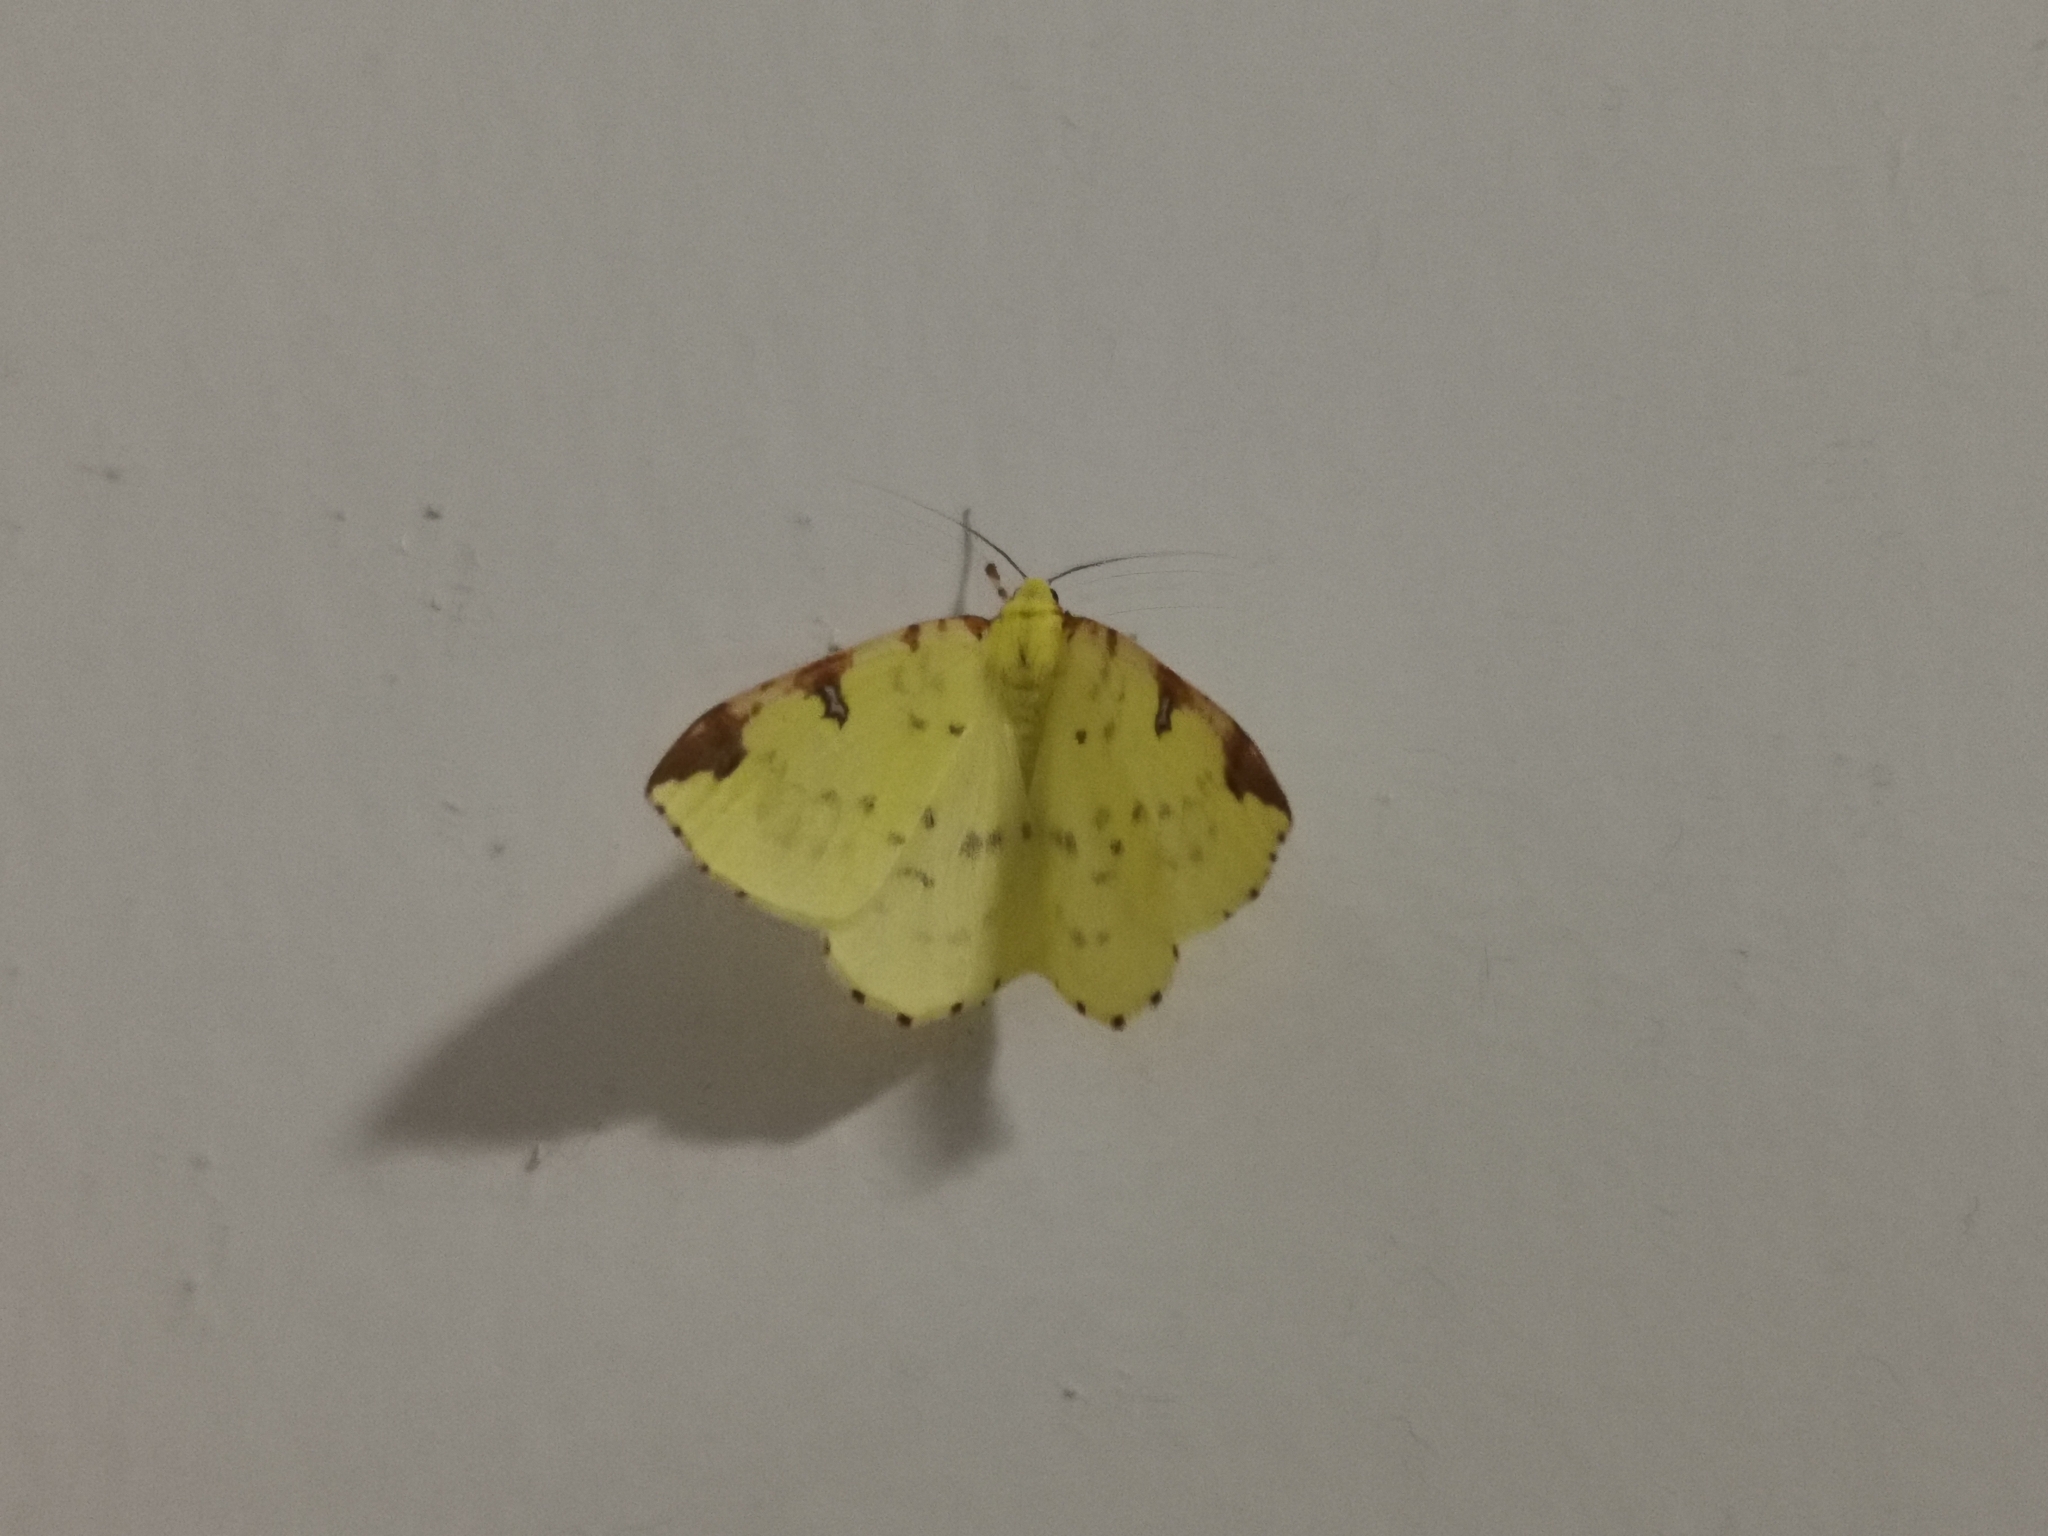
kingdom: Animalia
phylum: Arthropoda
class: Insecta
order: Lepidoptera
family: Geometridae
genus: Opisthograptis
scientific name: Opisthograptis luteolata
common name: Brimstone moth
